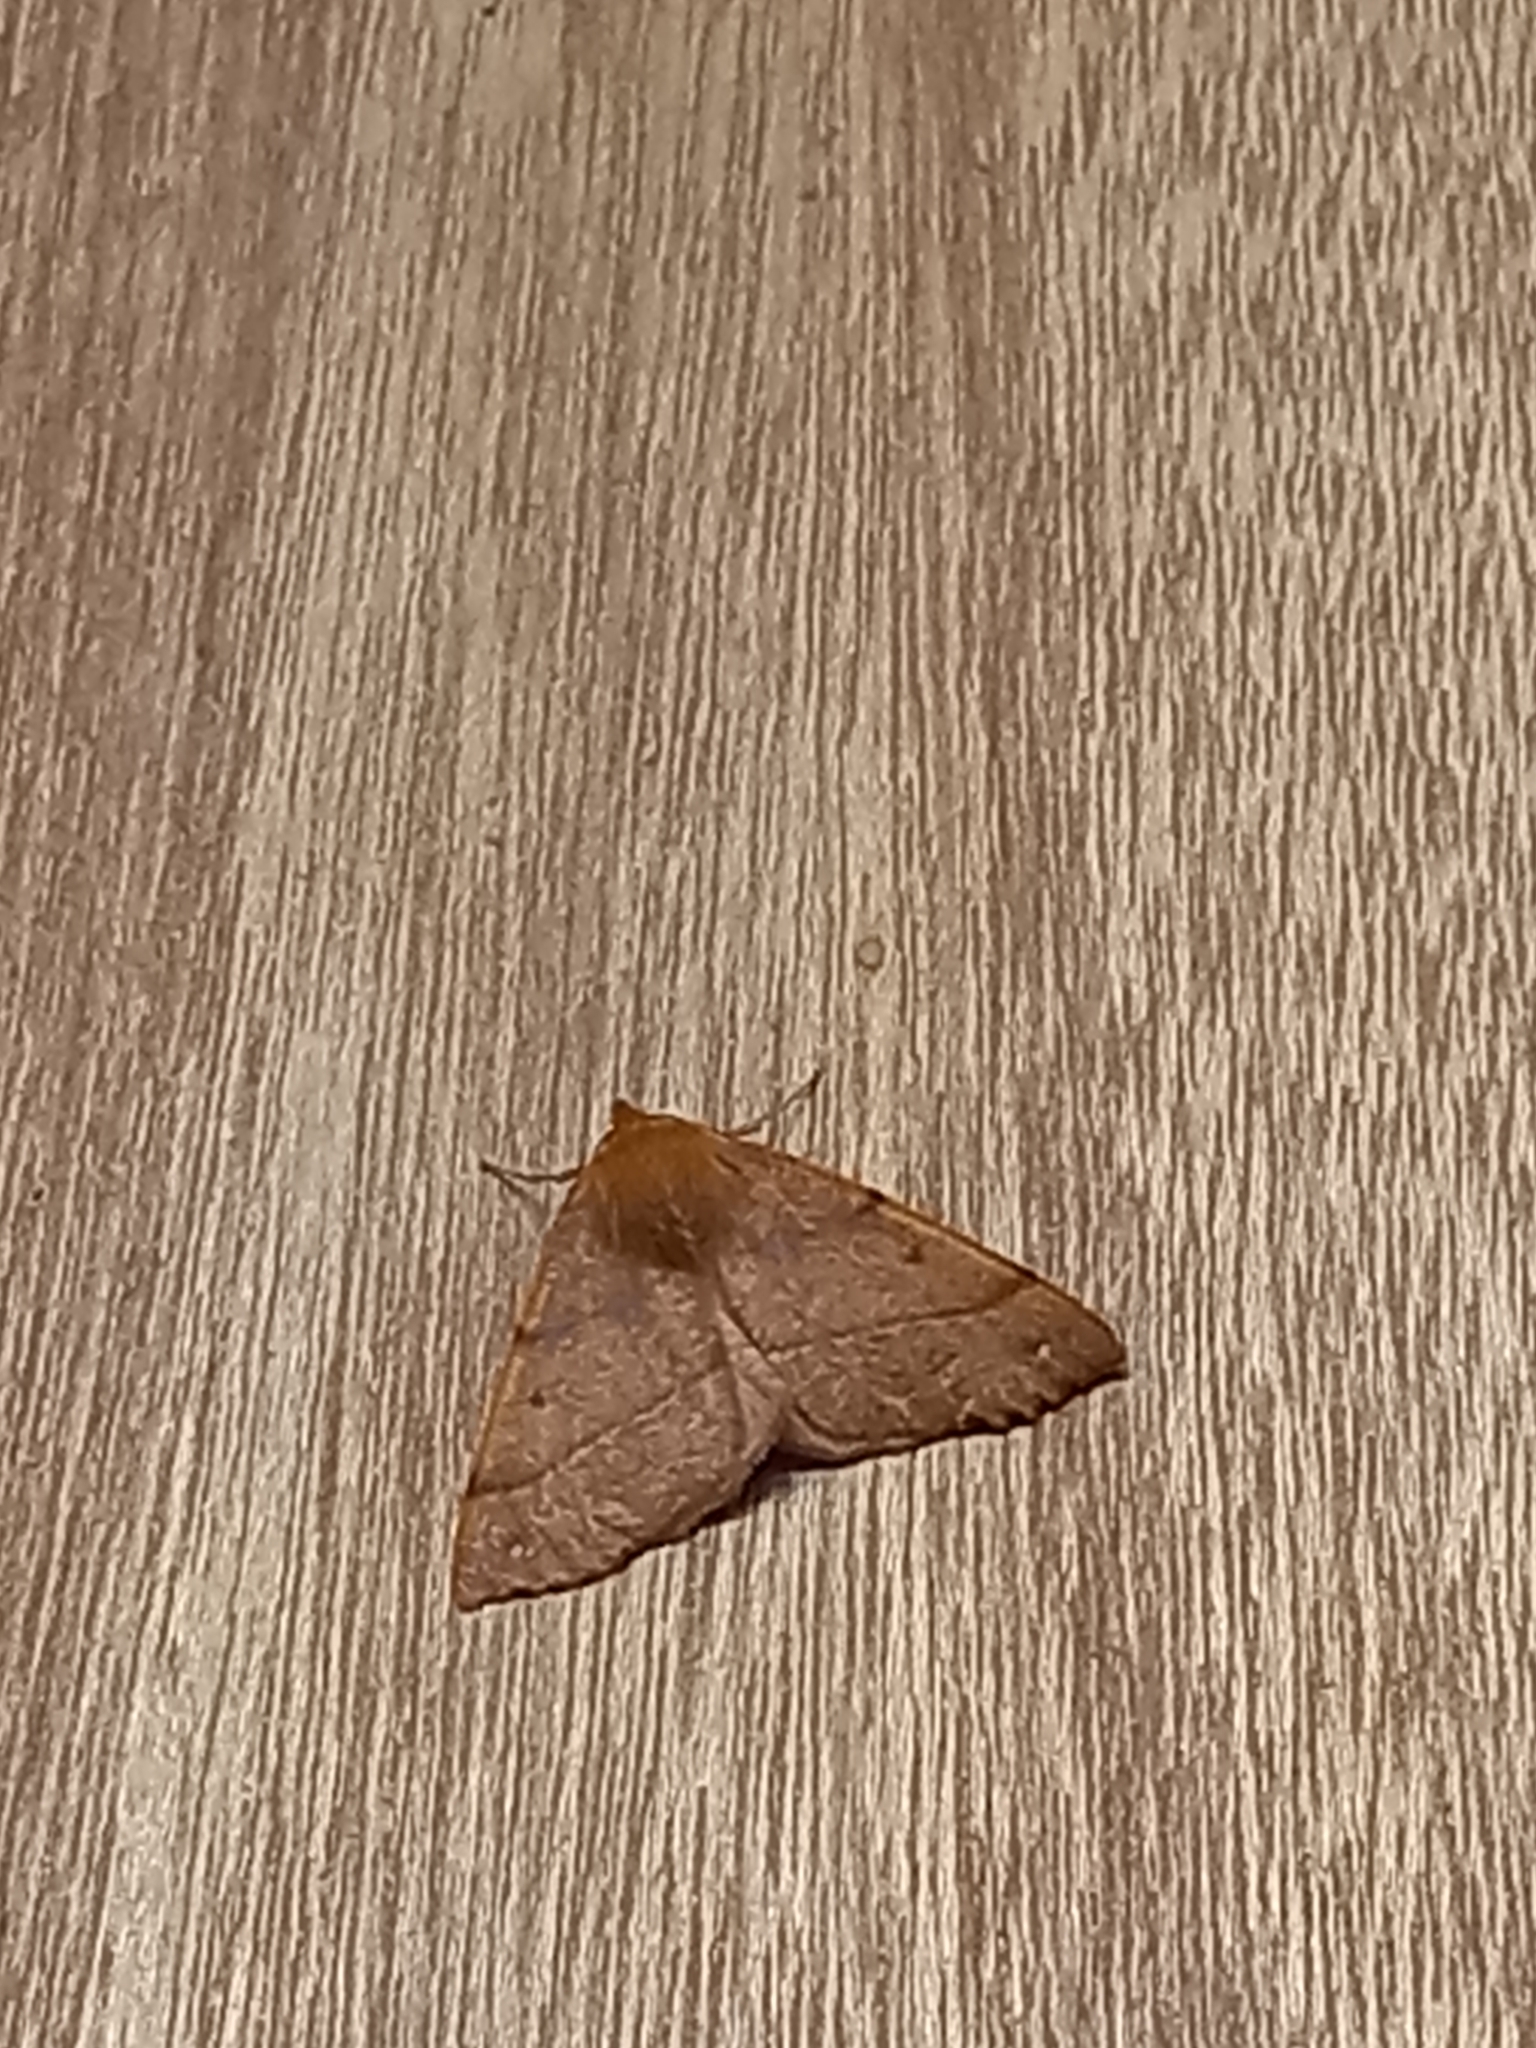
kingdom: Animalia
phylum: Arthropoda
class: Insecta
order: Lepidoptera
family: Geometridae
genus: Colotois
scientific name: Colotois pennaria
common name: Feathered thorn
